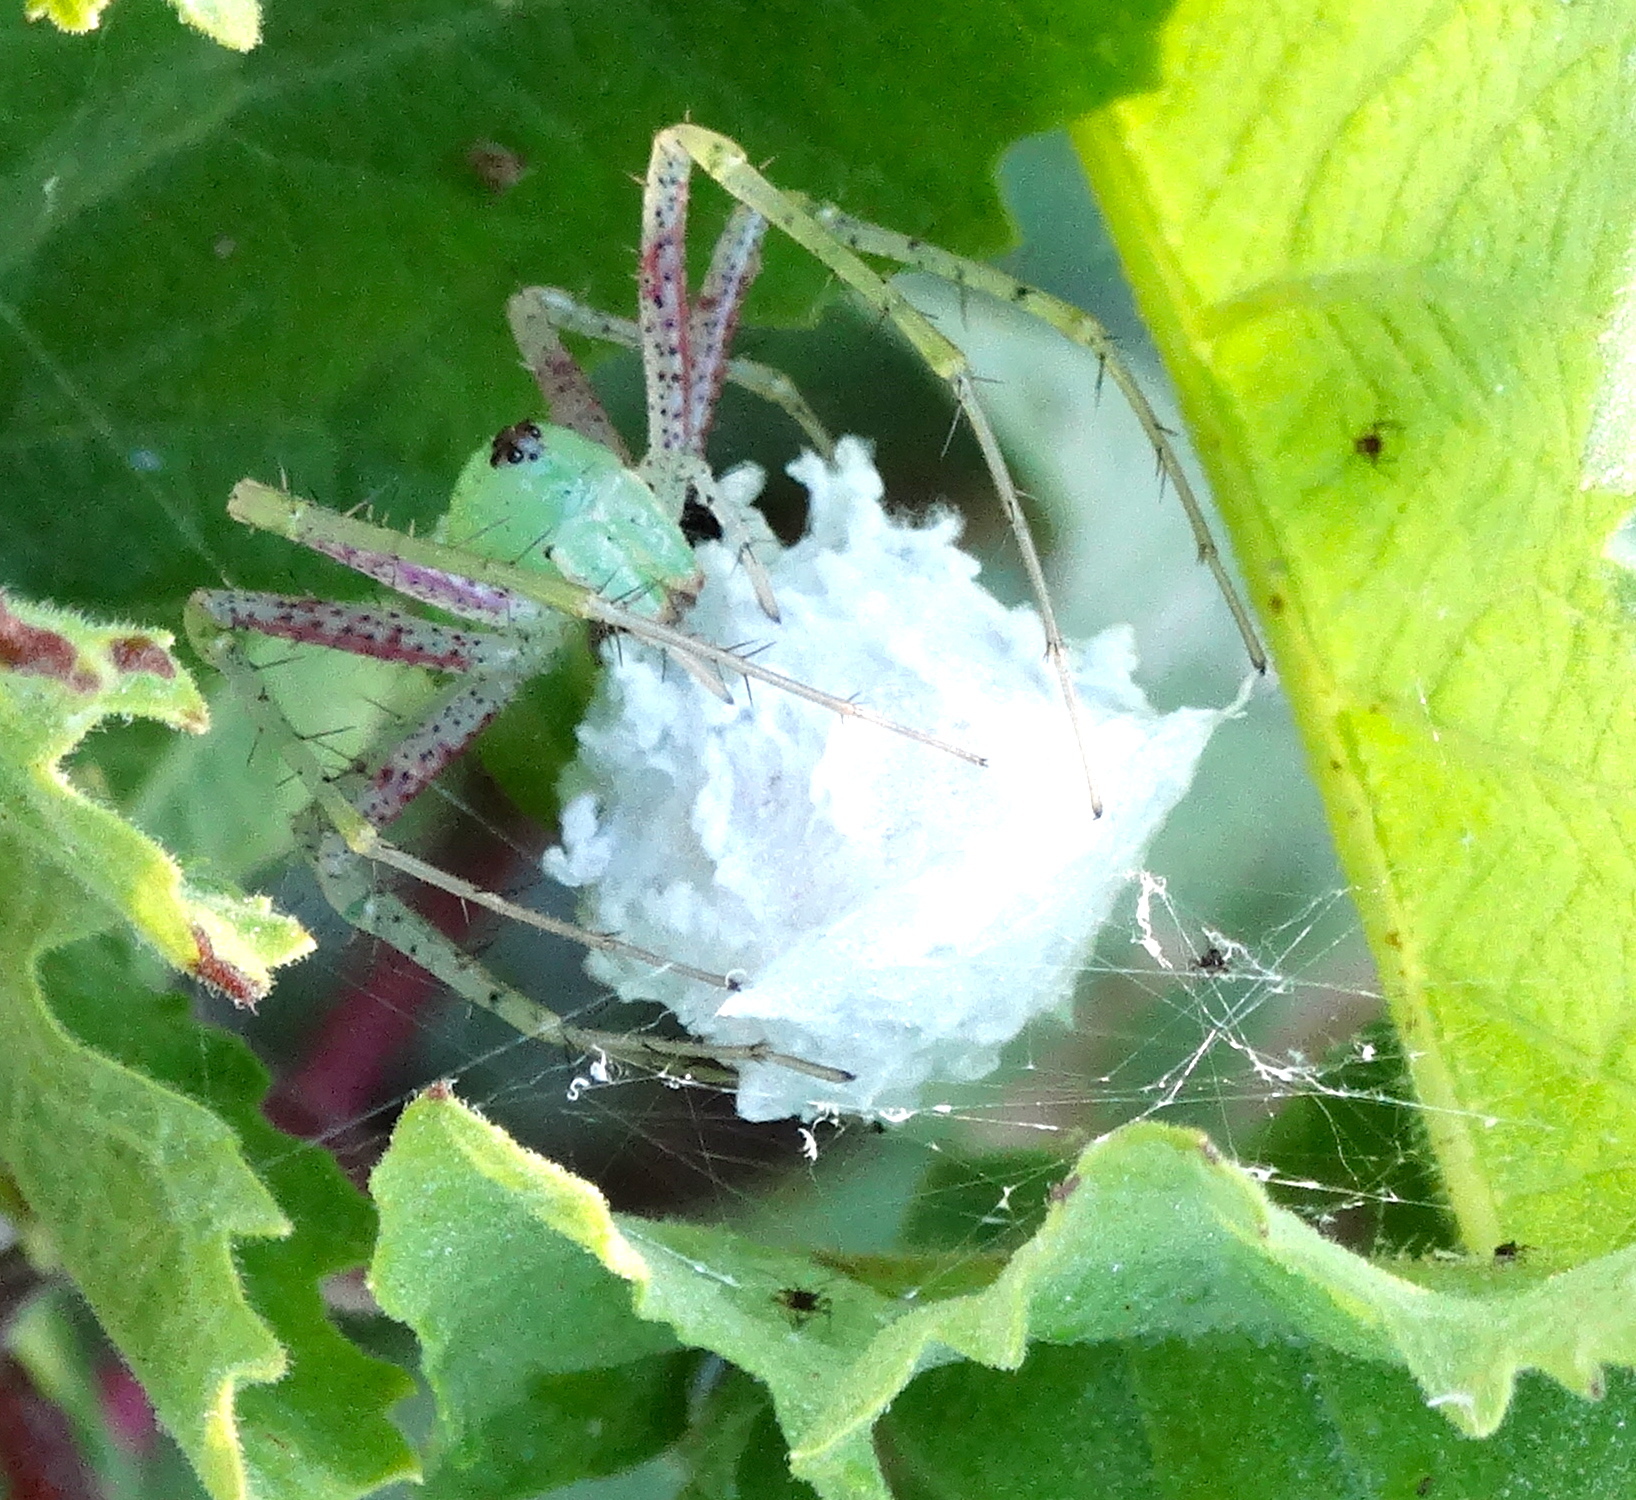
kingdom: Animalia
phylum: Arthropoda
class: Arachnida
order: Araneae
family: Oxyopidae
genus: Peucetia
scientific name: Peucetia
